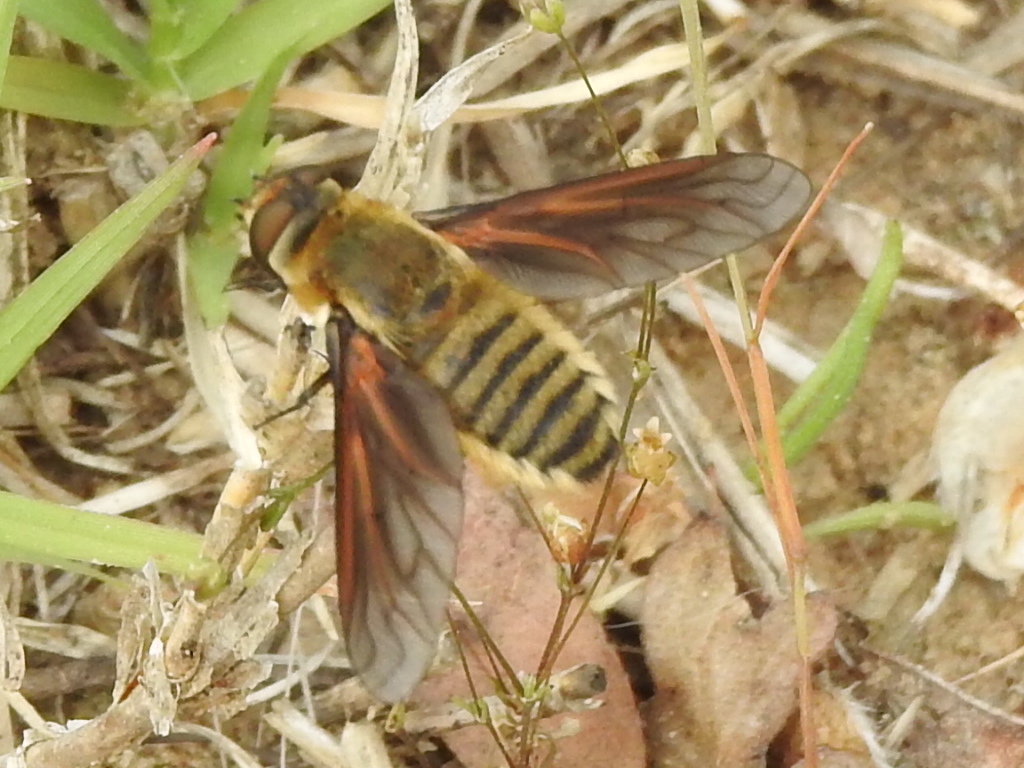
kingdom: Animalia
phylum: Arthropoda
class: Insecta
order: Diptera
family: Bombyliidae
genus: Poecilanthrax
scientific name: Poecilanthrax lucifer
